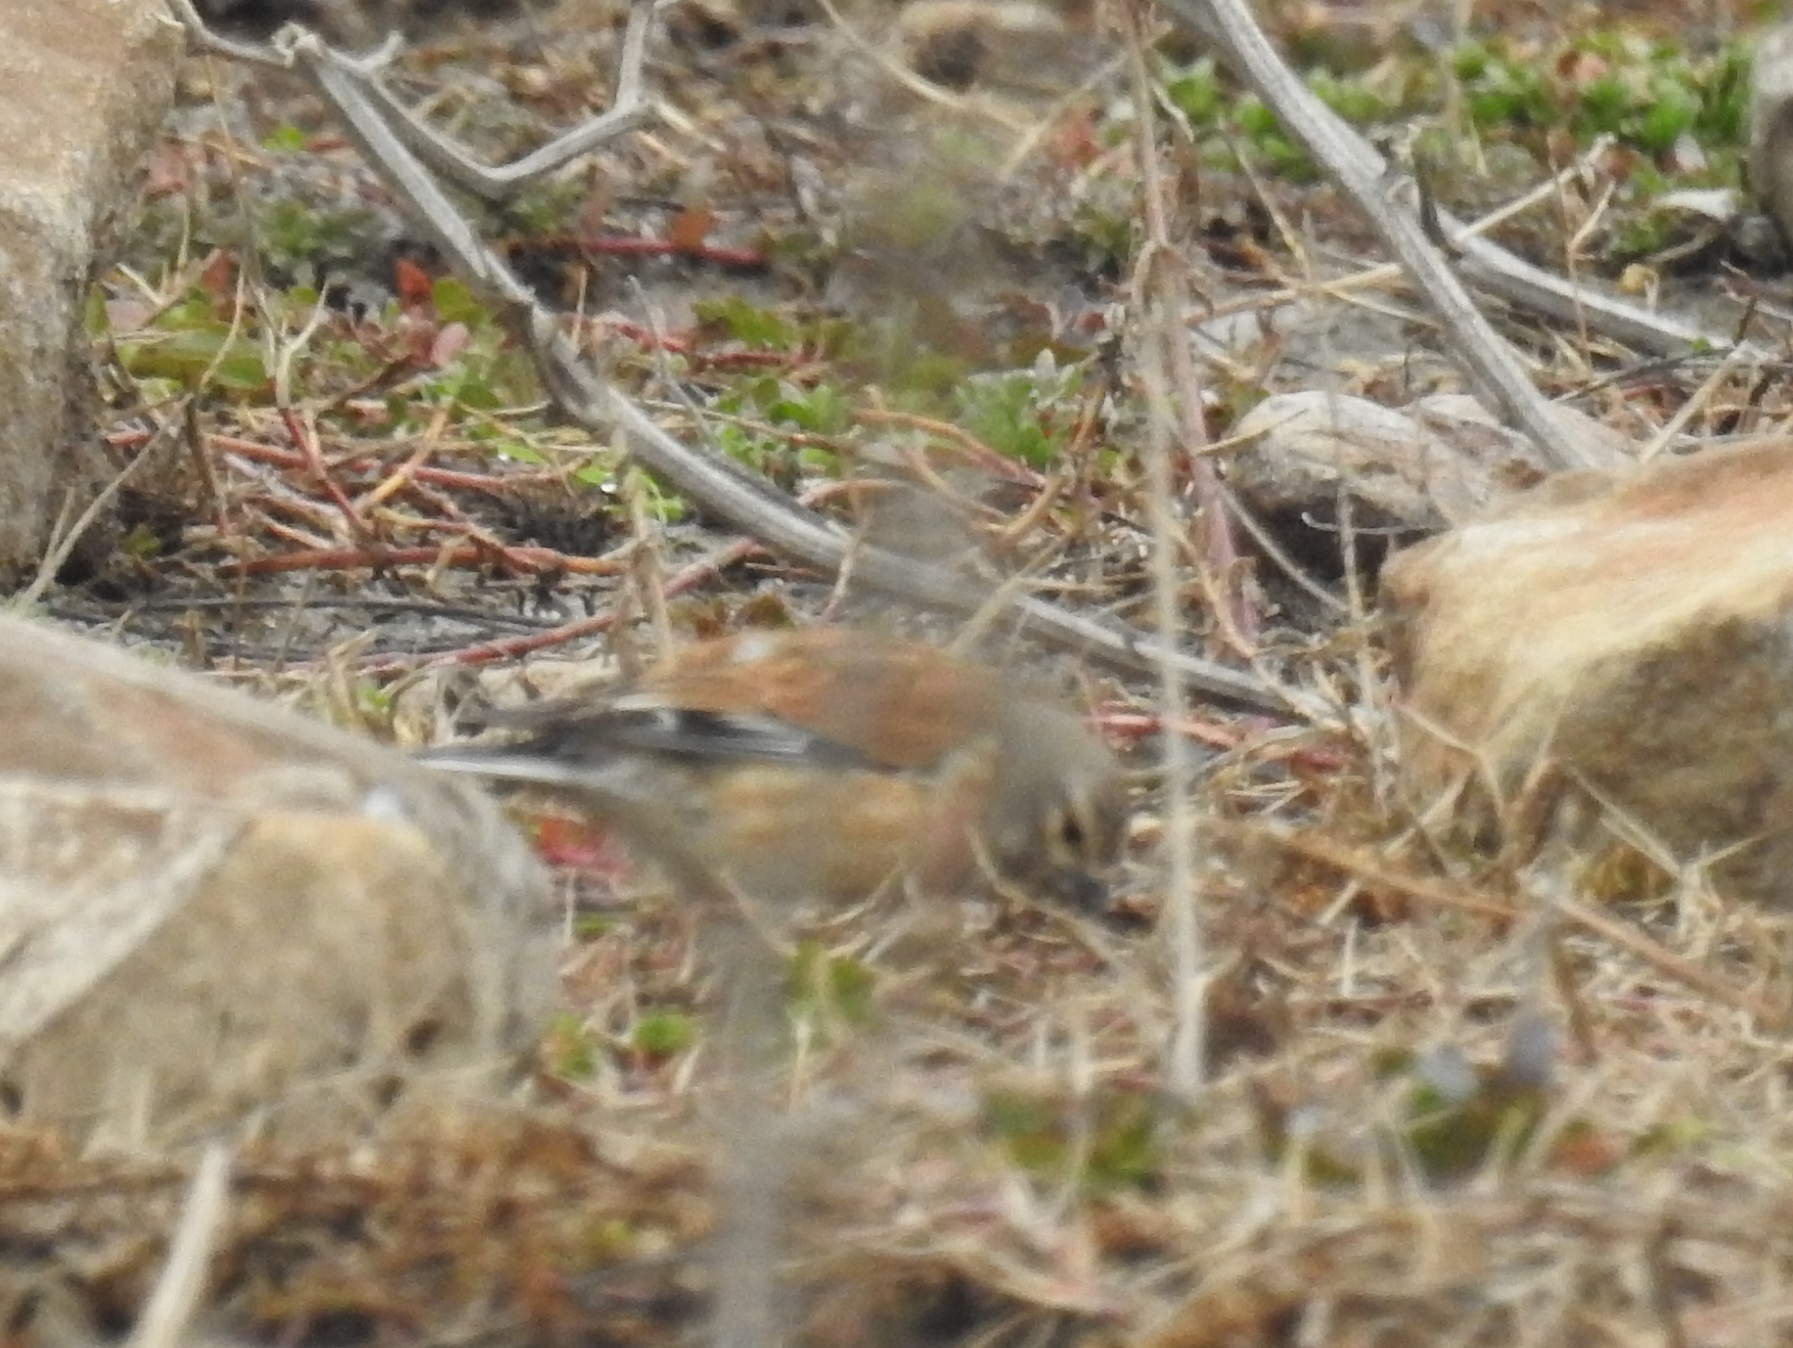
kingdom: Animalia
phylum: Chordata
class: Aves
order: Passeriformes
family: Fringillidae
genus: Linaria
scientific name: Linaria cannabina
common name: Common linnet
